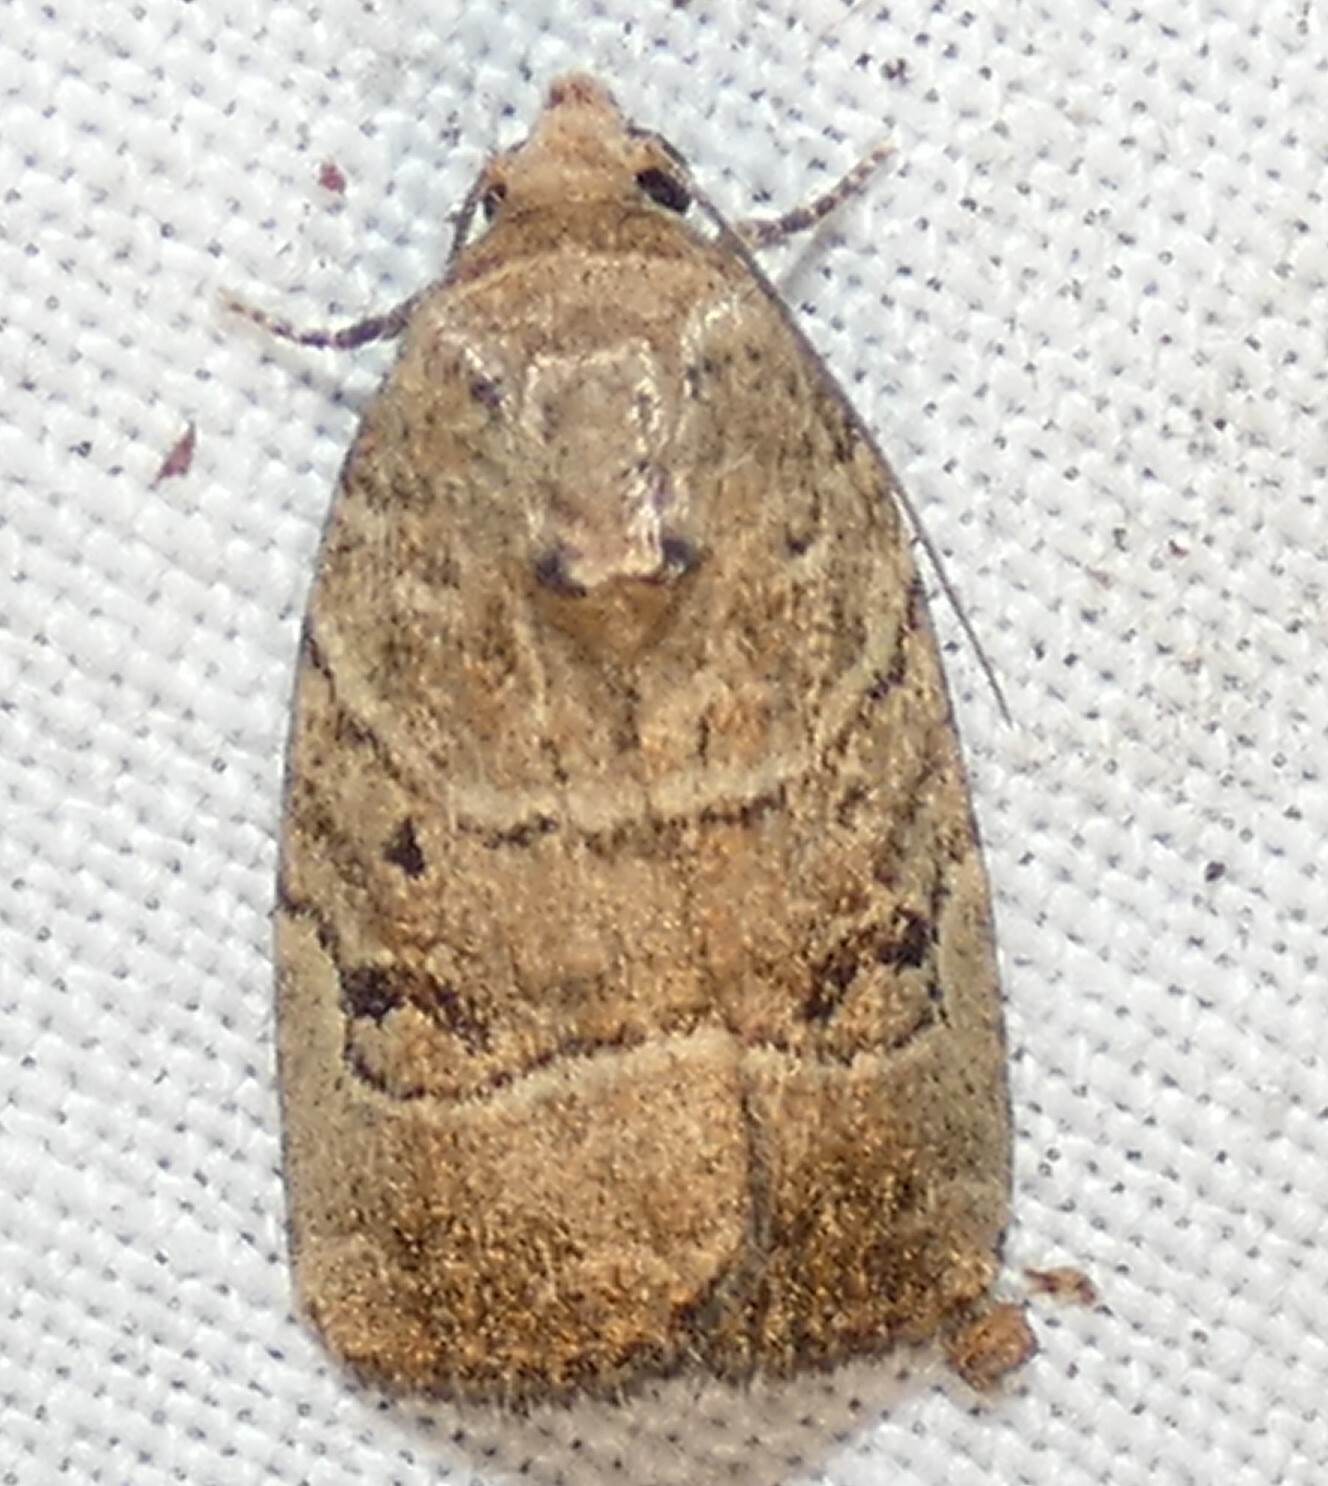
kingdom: Animalia
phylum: Arthropoda
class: Insecta
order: Lepidoptera
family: Noctuidae
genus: Elaphria
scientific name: Elaphria fuscimacula
